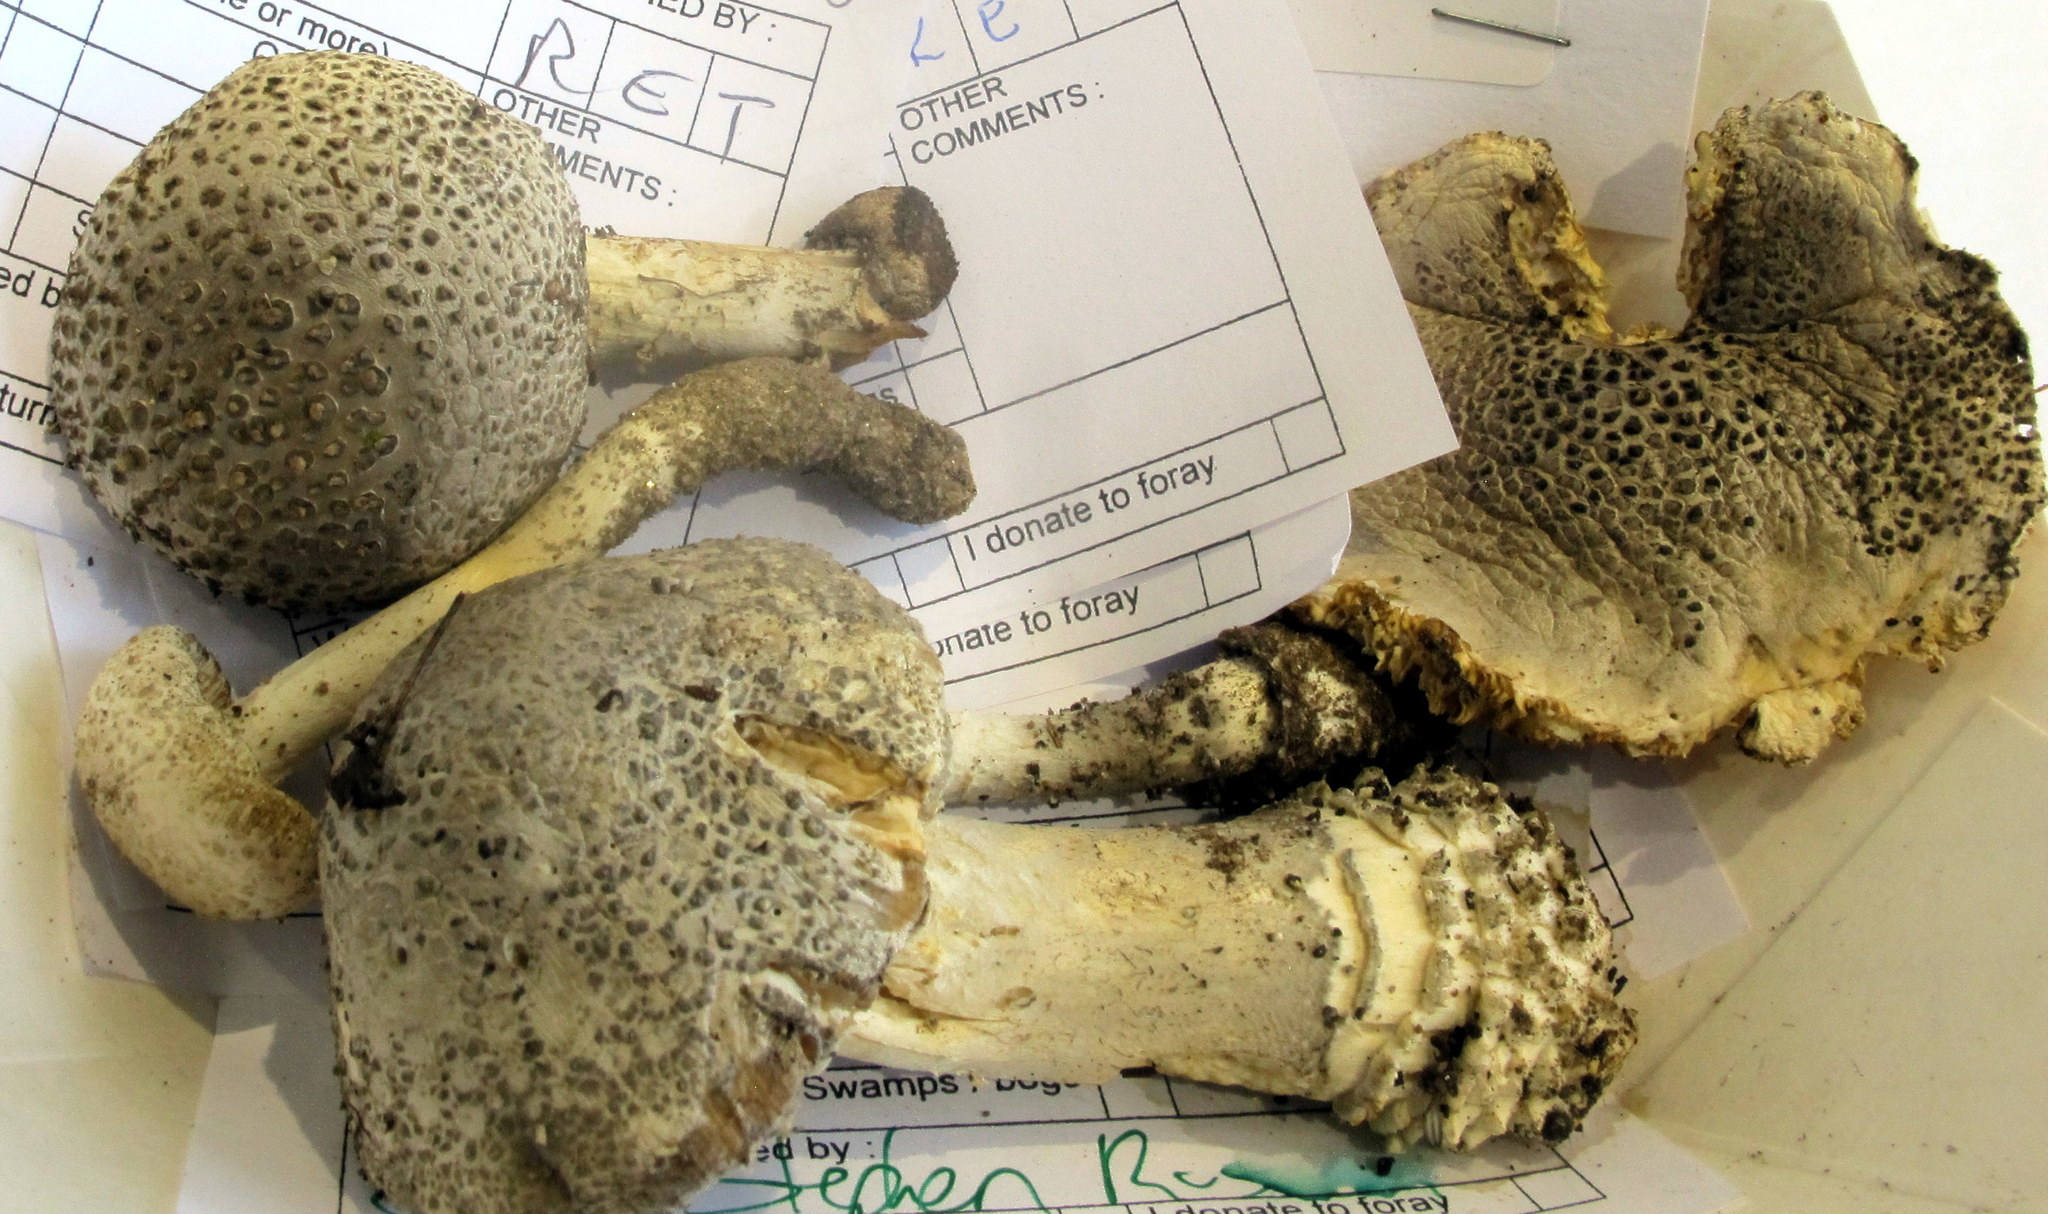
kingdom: Fungi
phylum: Basidiomycota
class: Agaricomycetes
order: Agaricales
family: Amanitaceae
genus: Amanita
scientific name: Amanita onusta
